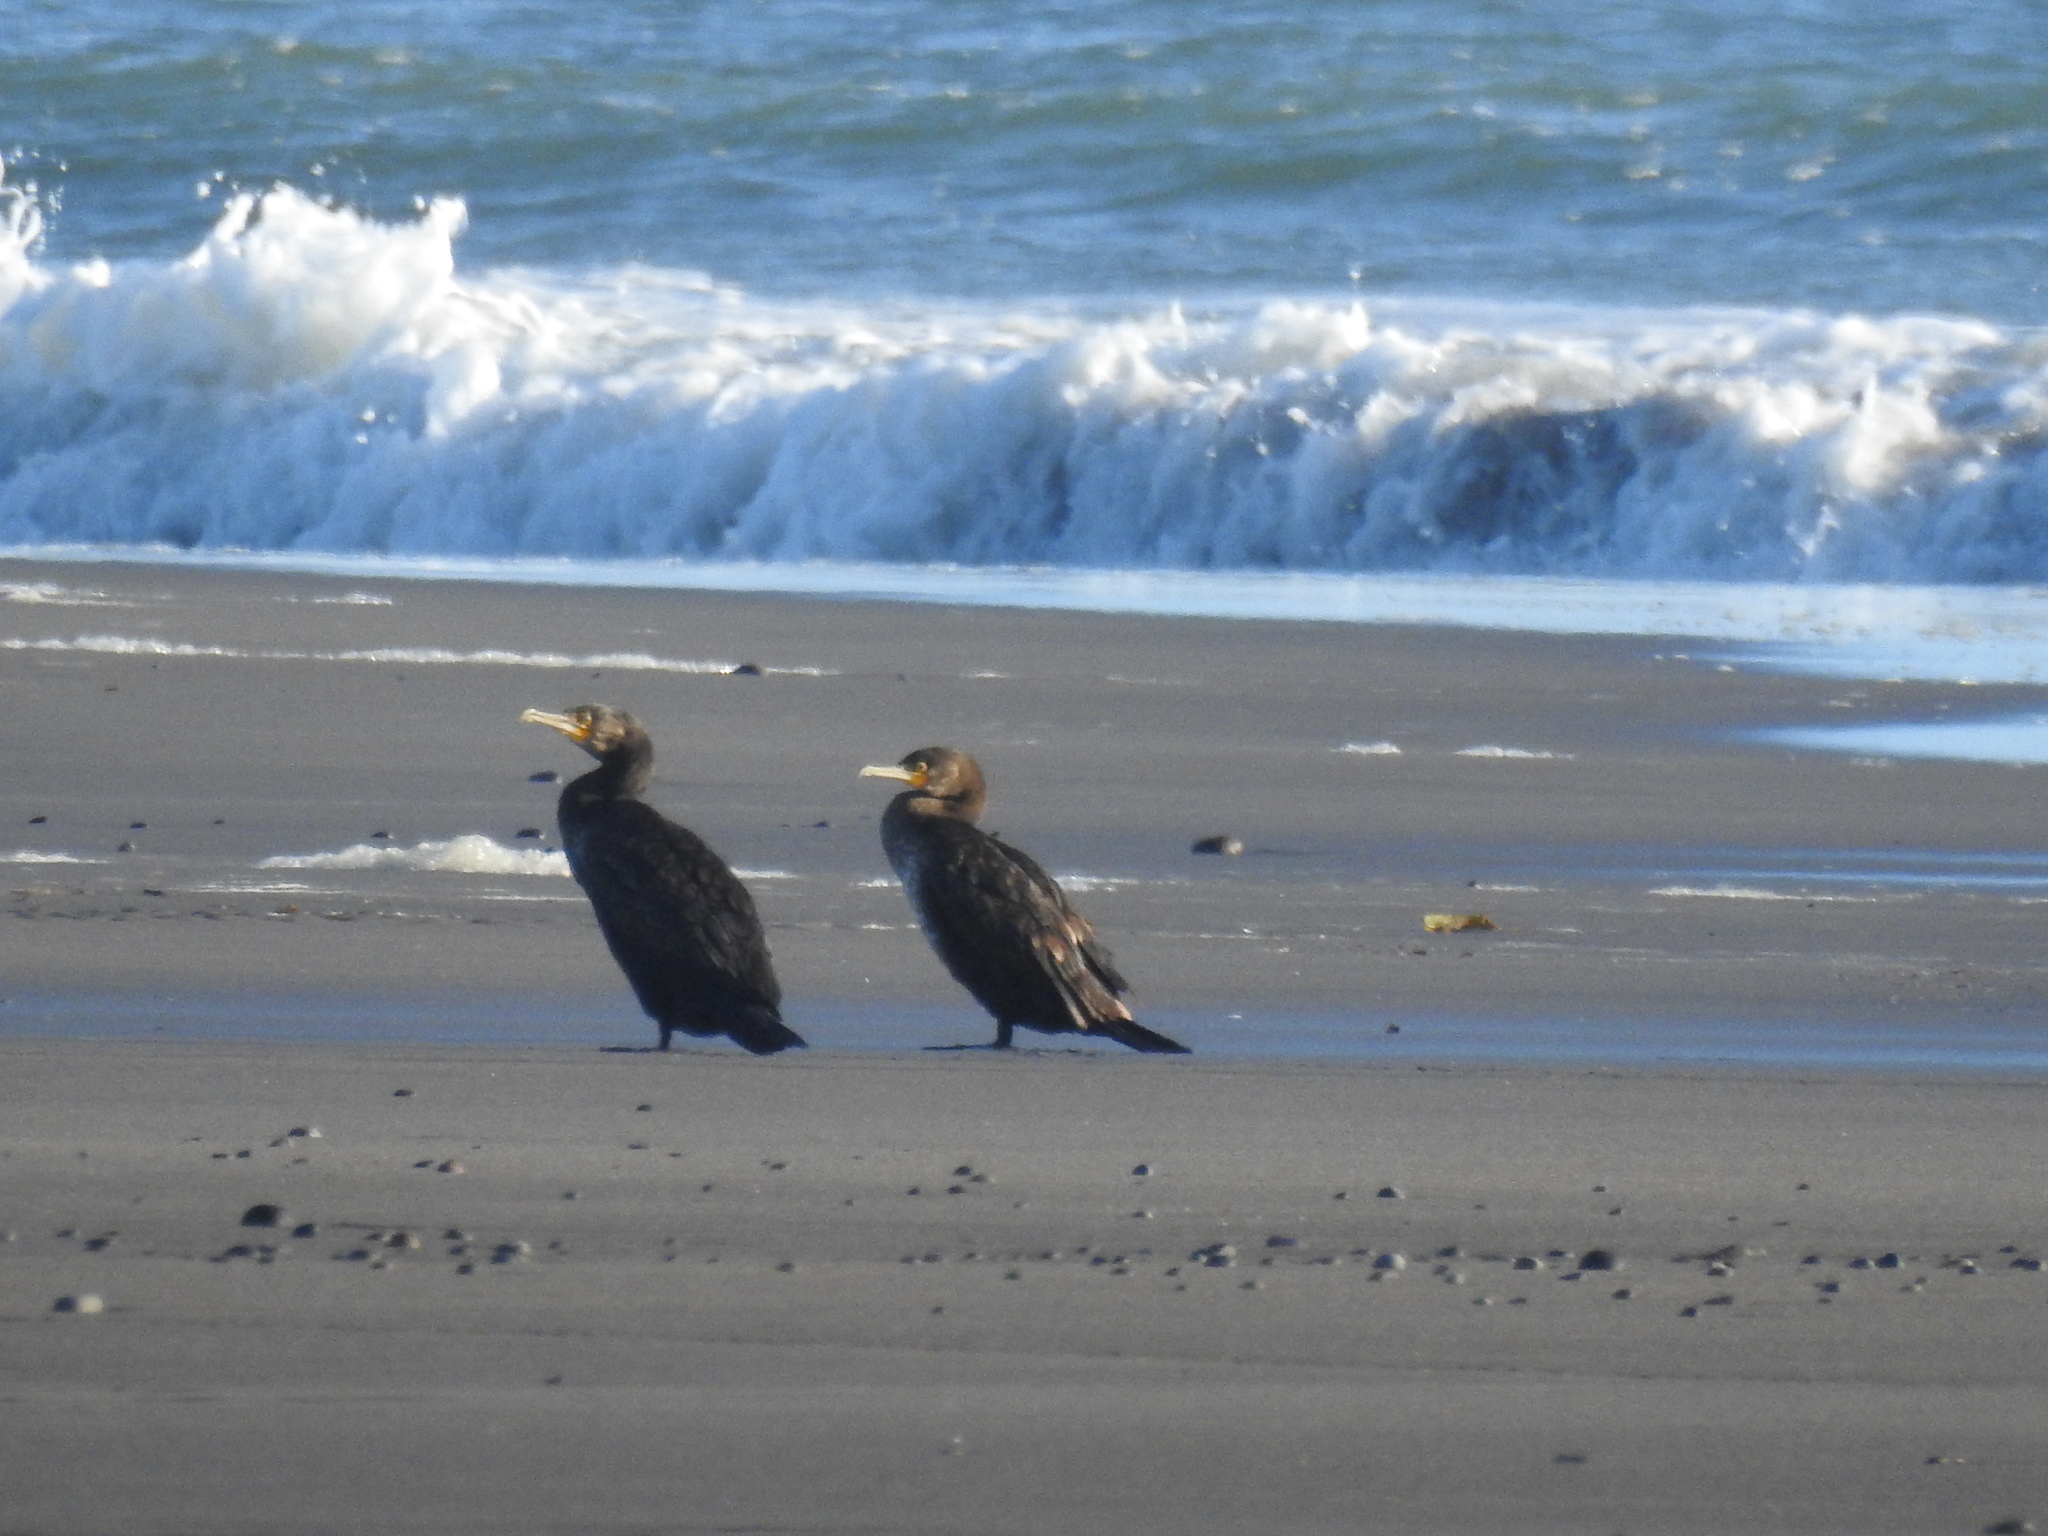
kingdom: Animalia
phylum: Chordata
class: Aves
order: Suliformes
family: Phalacrocoracidae
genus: Phalacrocorax
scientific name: Phalacrocorax carbo
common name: Great cormorant
